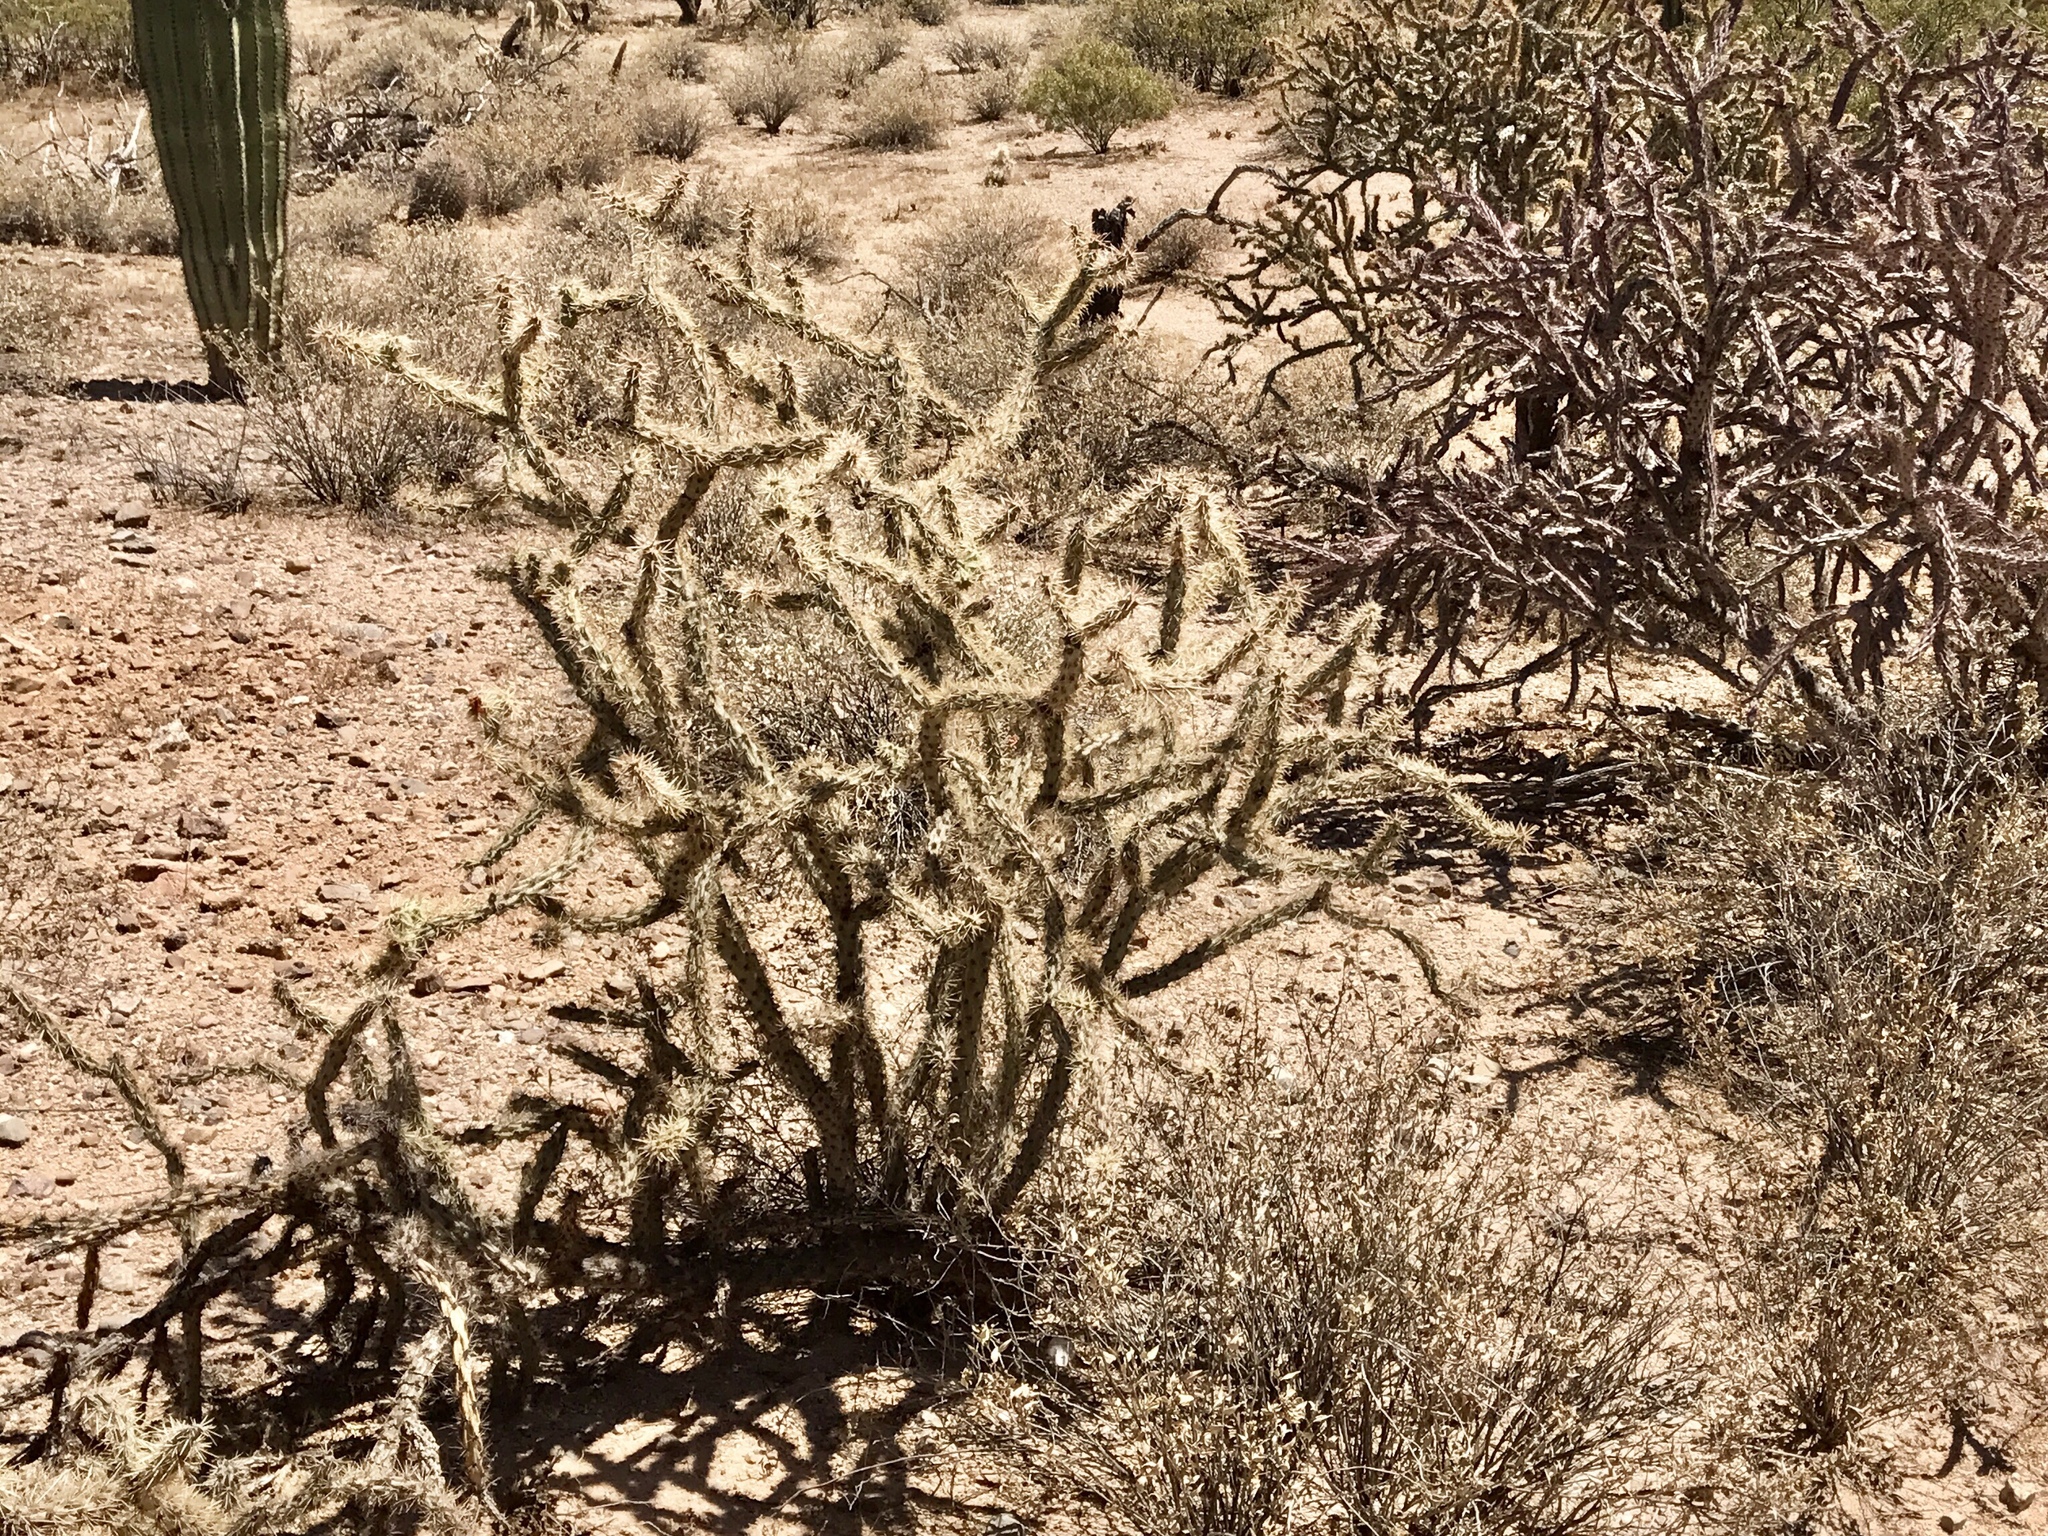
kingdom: Plantae
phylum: Tracheophyta
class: Magnoliopsida
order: Caryophyllales
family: Cactaceae
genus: Cylindropuntia
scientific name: Cylindropuntia acanthocarpa
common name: Buckhorn cholla
